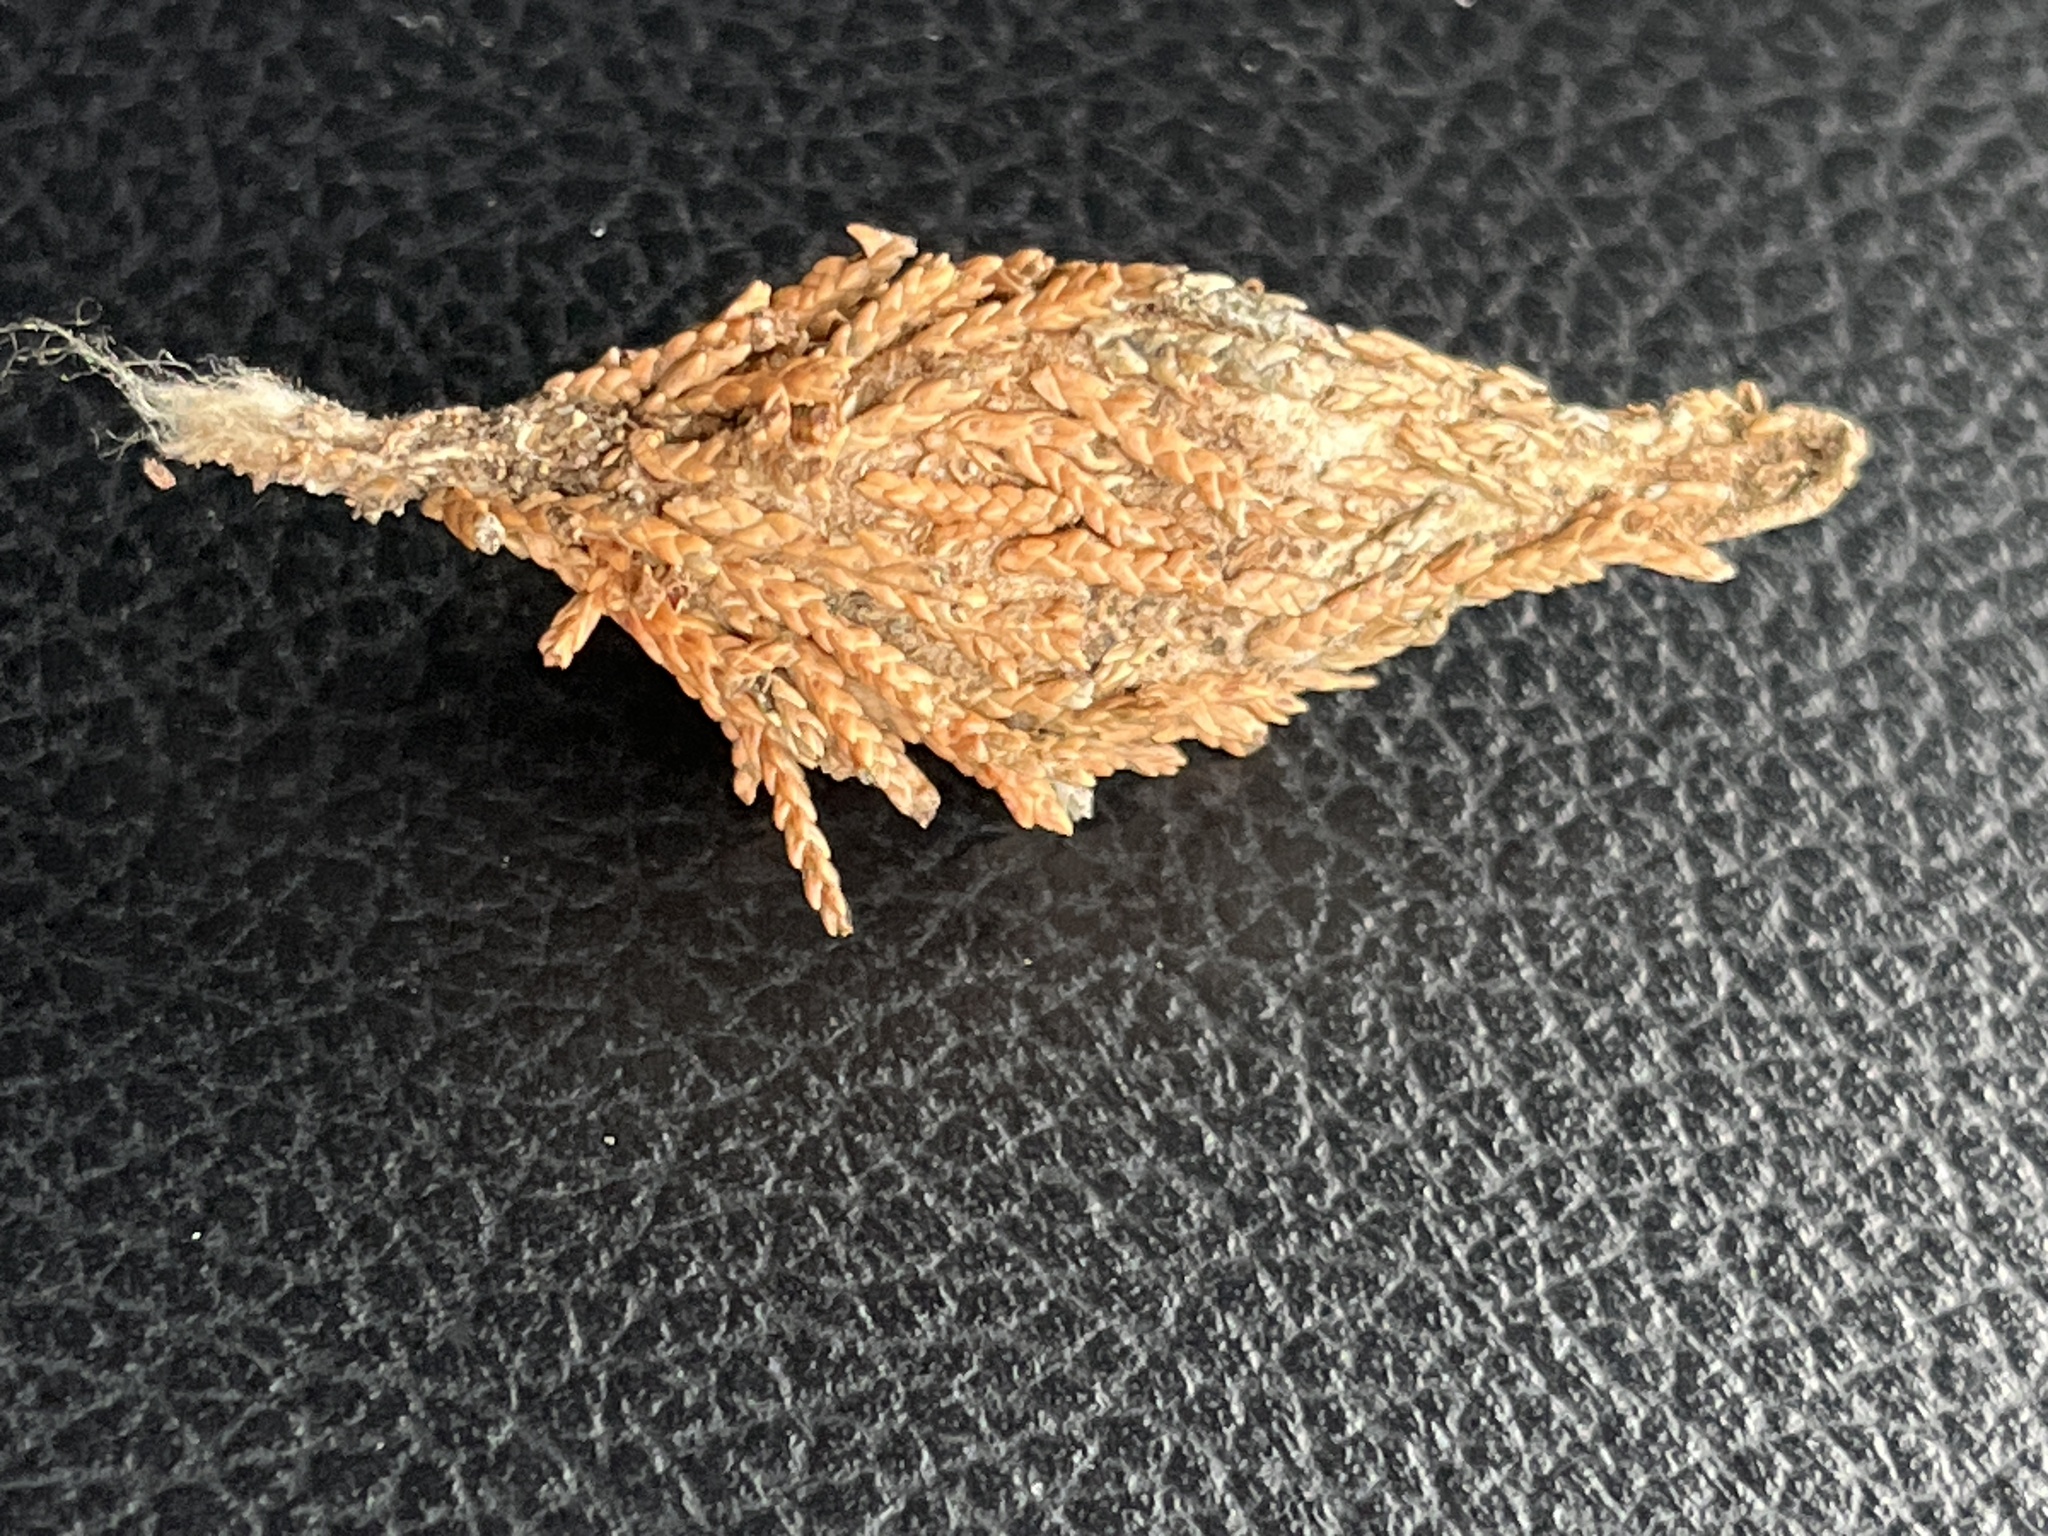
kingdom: Animalia
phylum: Arthropoda
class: Insecta
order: Lepidoptera
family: Psychidae
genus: Thyridopteryx
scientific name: Thyridopteryx ephemeraeformis
